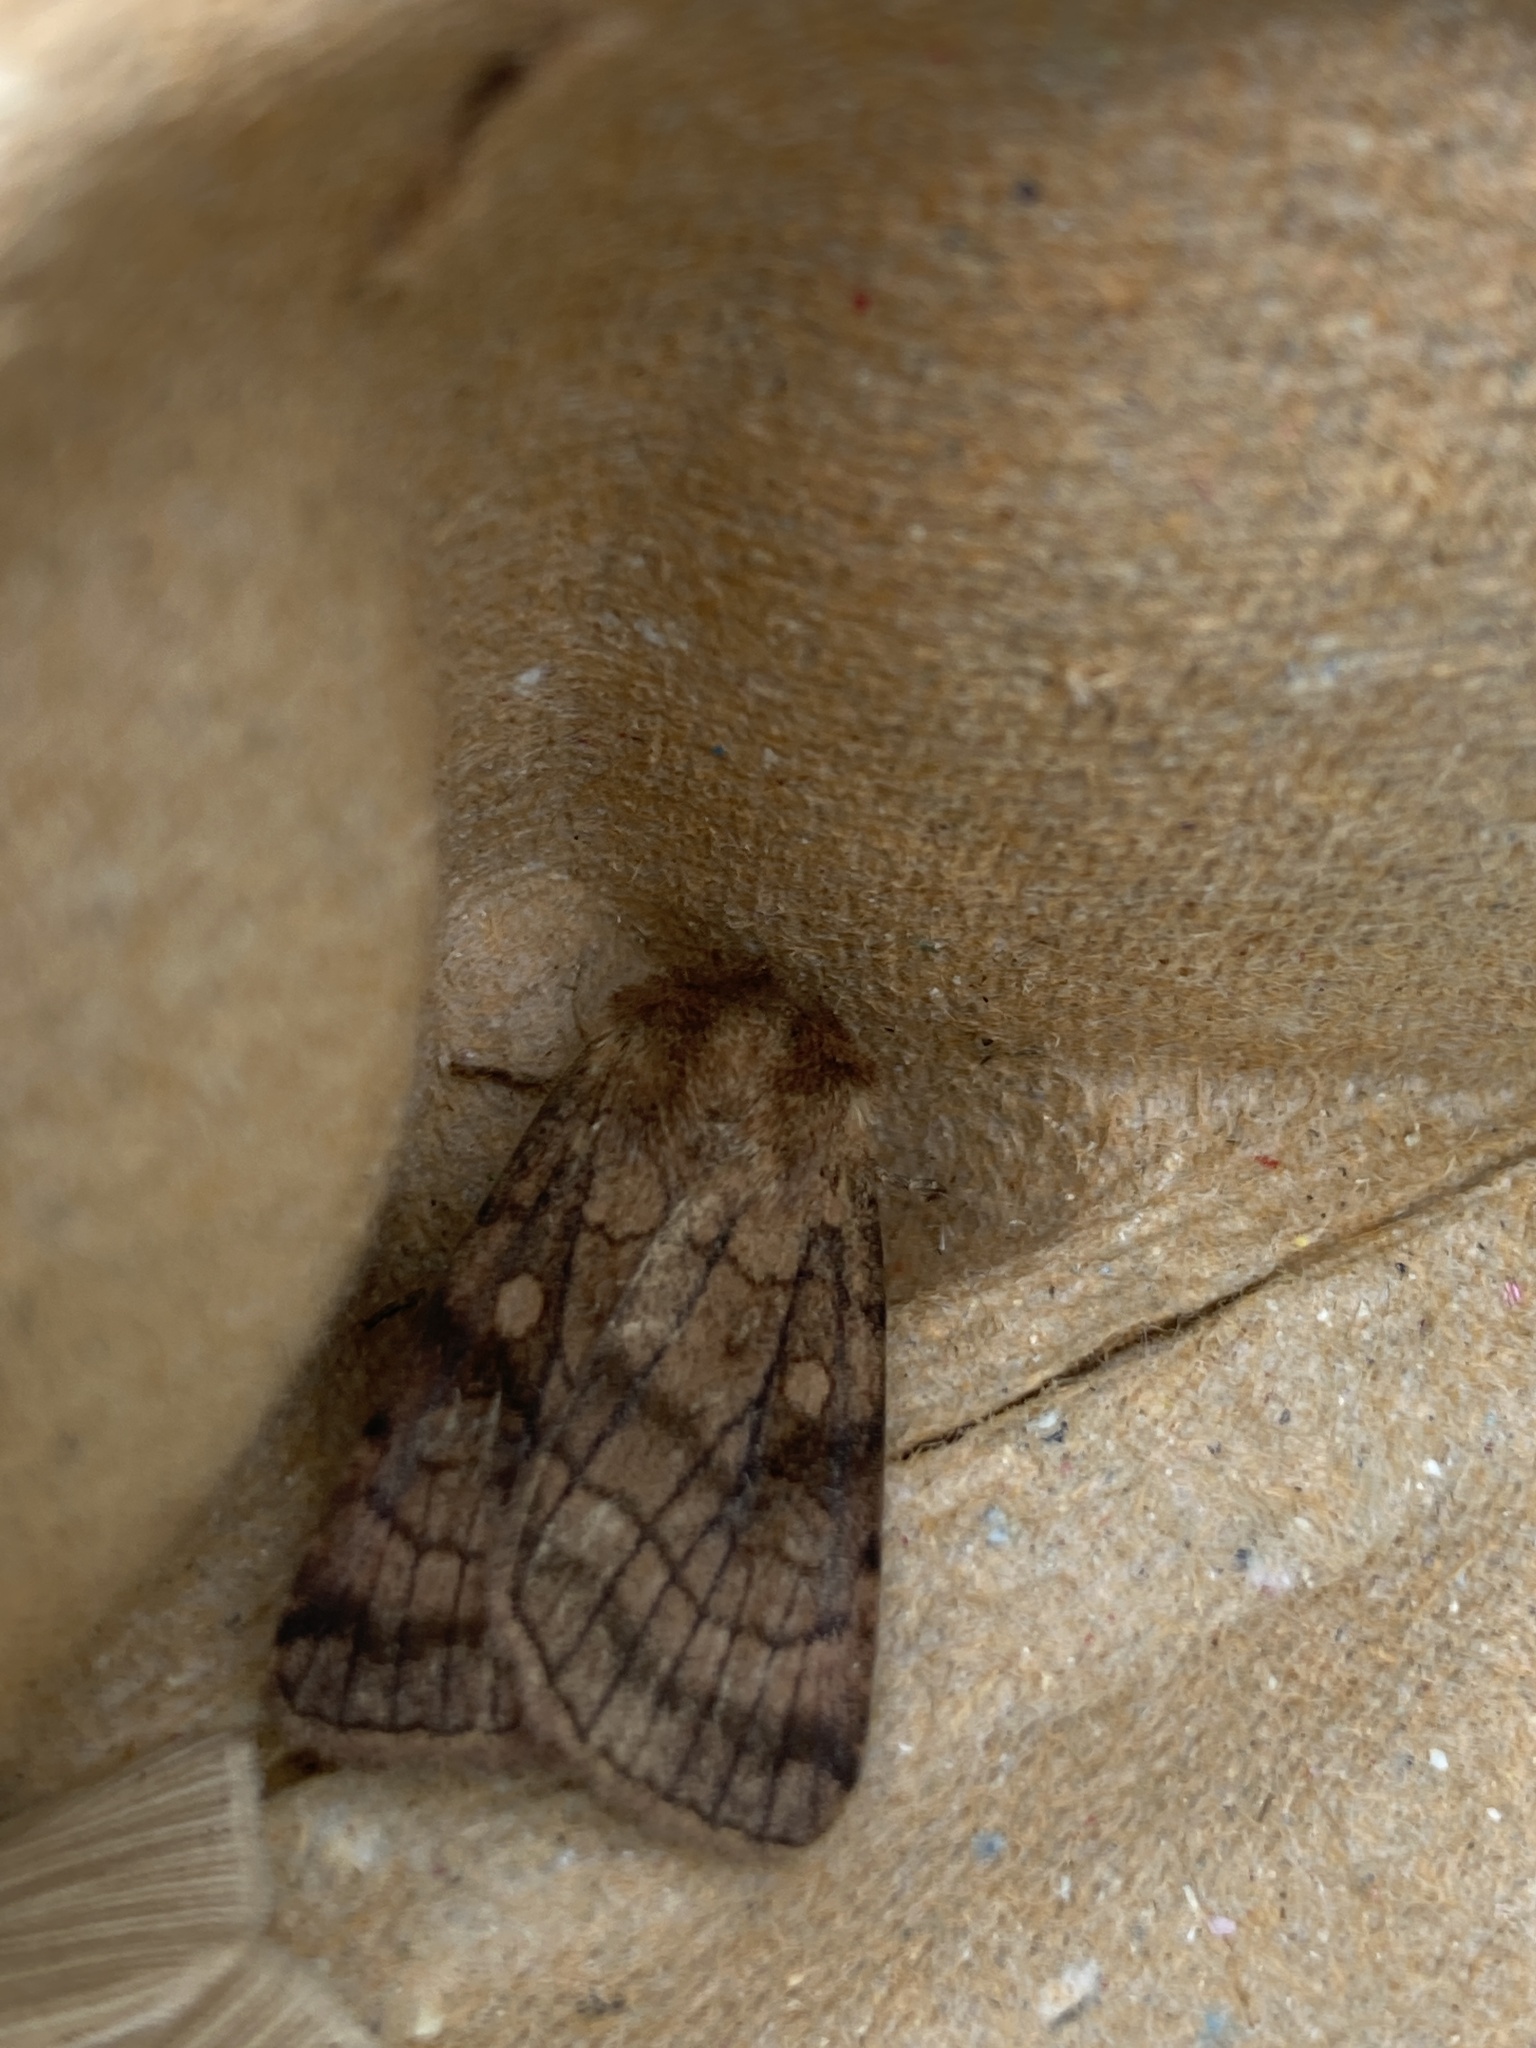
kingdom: Animalia
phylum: Arthropoda
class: Insecta
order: Lepidoptera
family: Noctuidae
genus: Xestia
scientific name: Xestia sexstrigata
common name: Six-striped rustic
